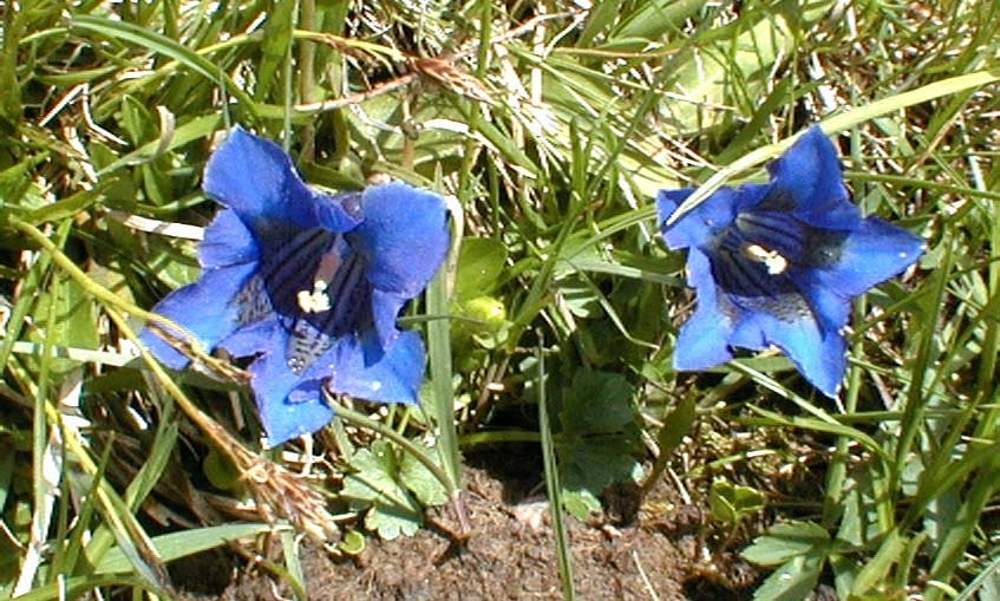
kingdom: Plantae
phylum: Tracheophyta
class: Magnoliopsida
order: Gentianales
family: Gentianaceae
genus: Gentiana
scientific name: Gentiana acaulis
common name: Trumpet gentian
